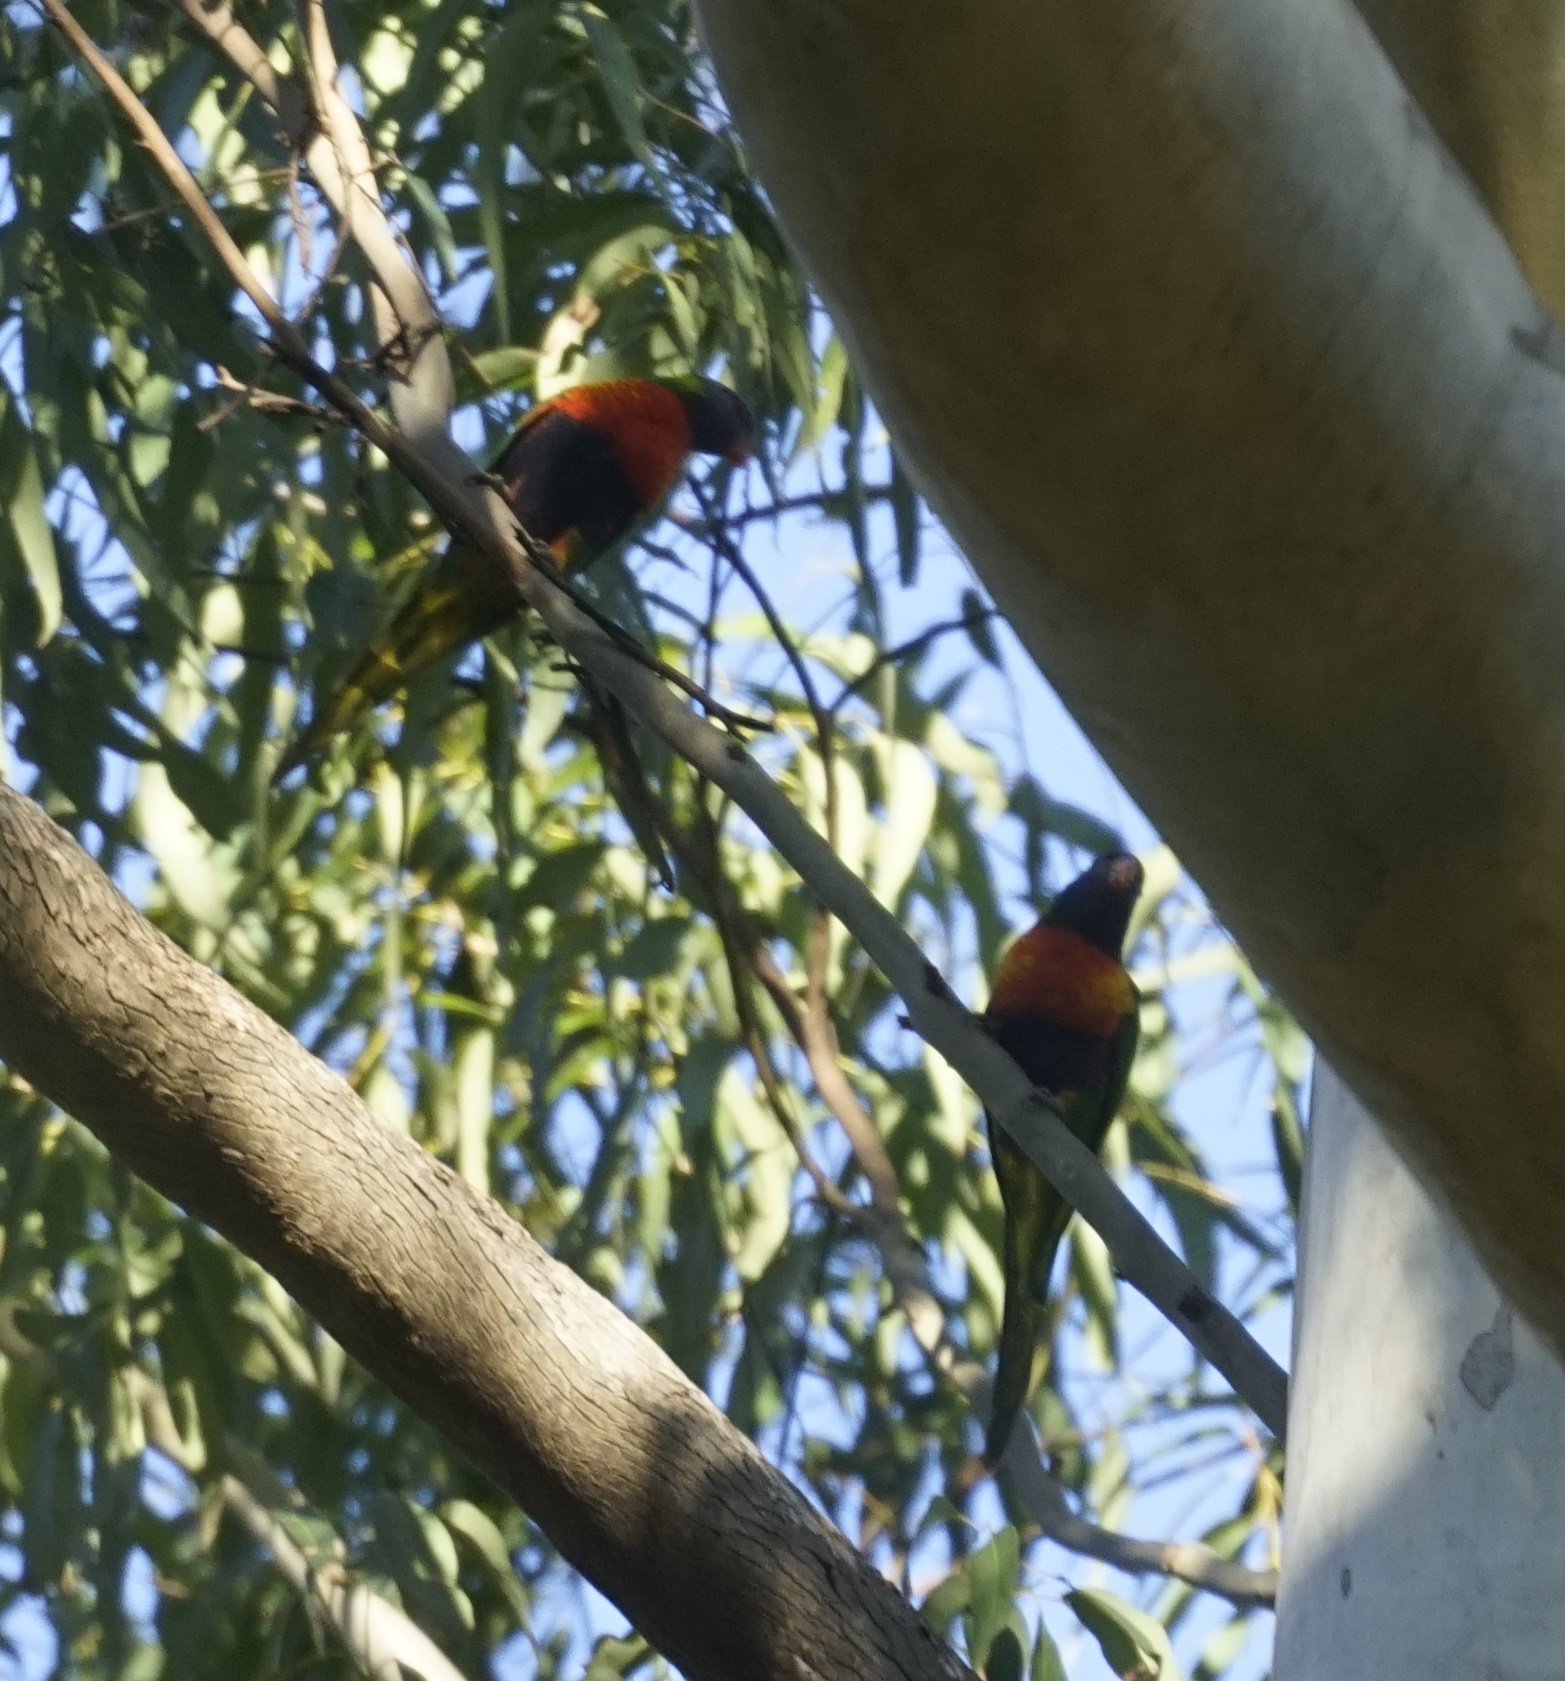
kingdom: Animalia
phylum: Chordata
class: Aves
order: Psittaciformes
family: Psittacidae
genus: Trichoglossus
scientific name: Trichoglossus haematodus
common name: Coconut lorikeet
